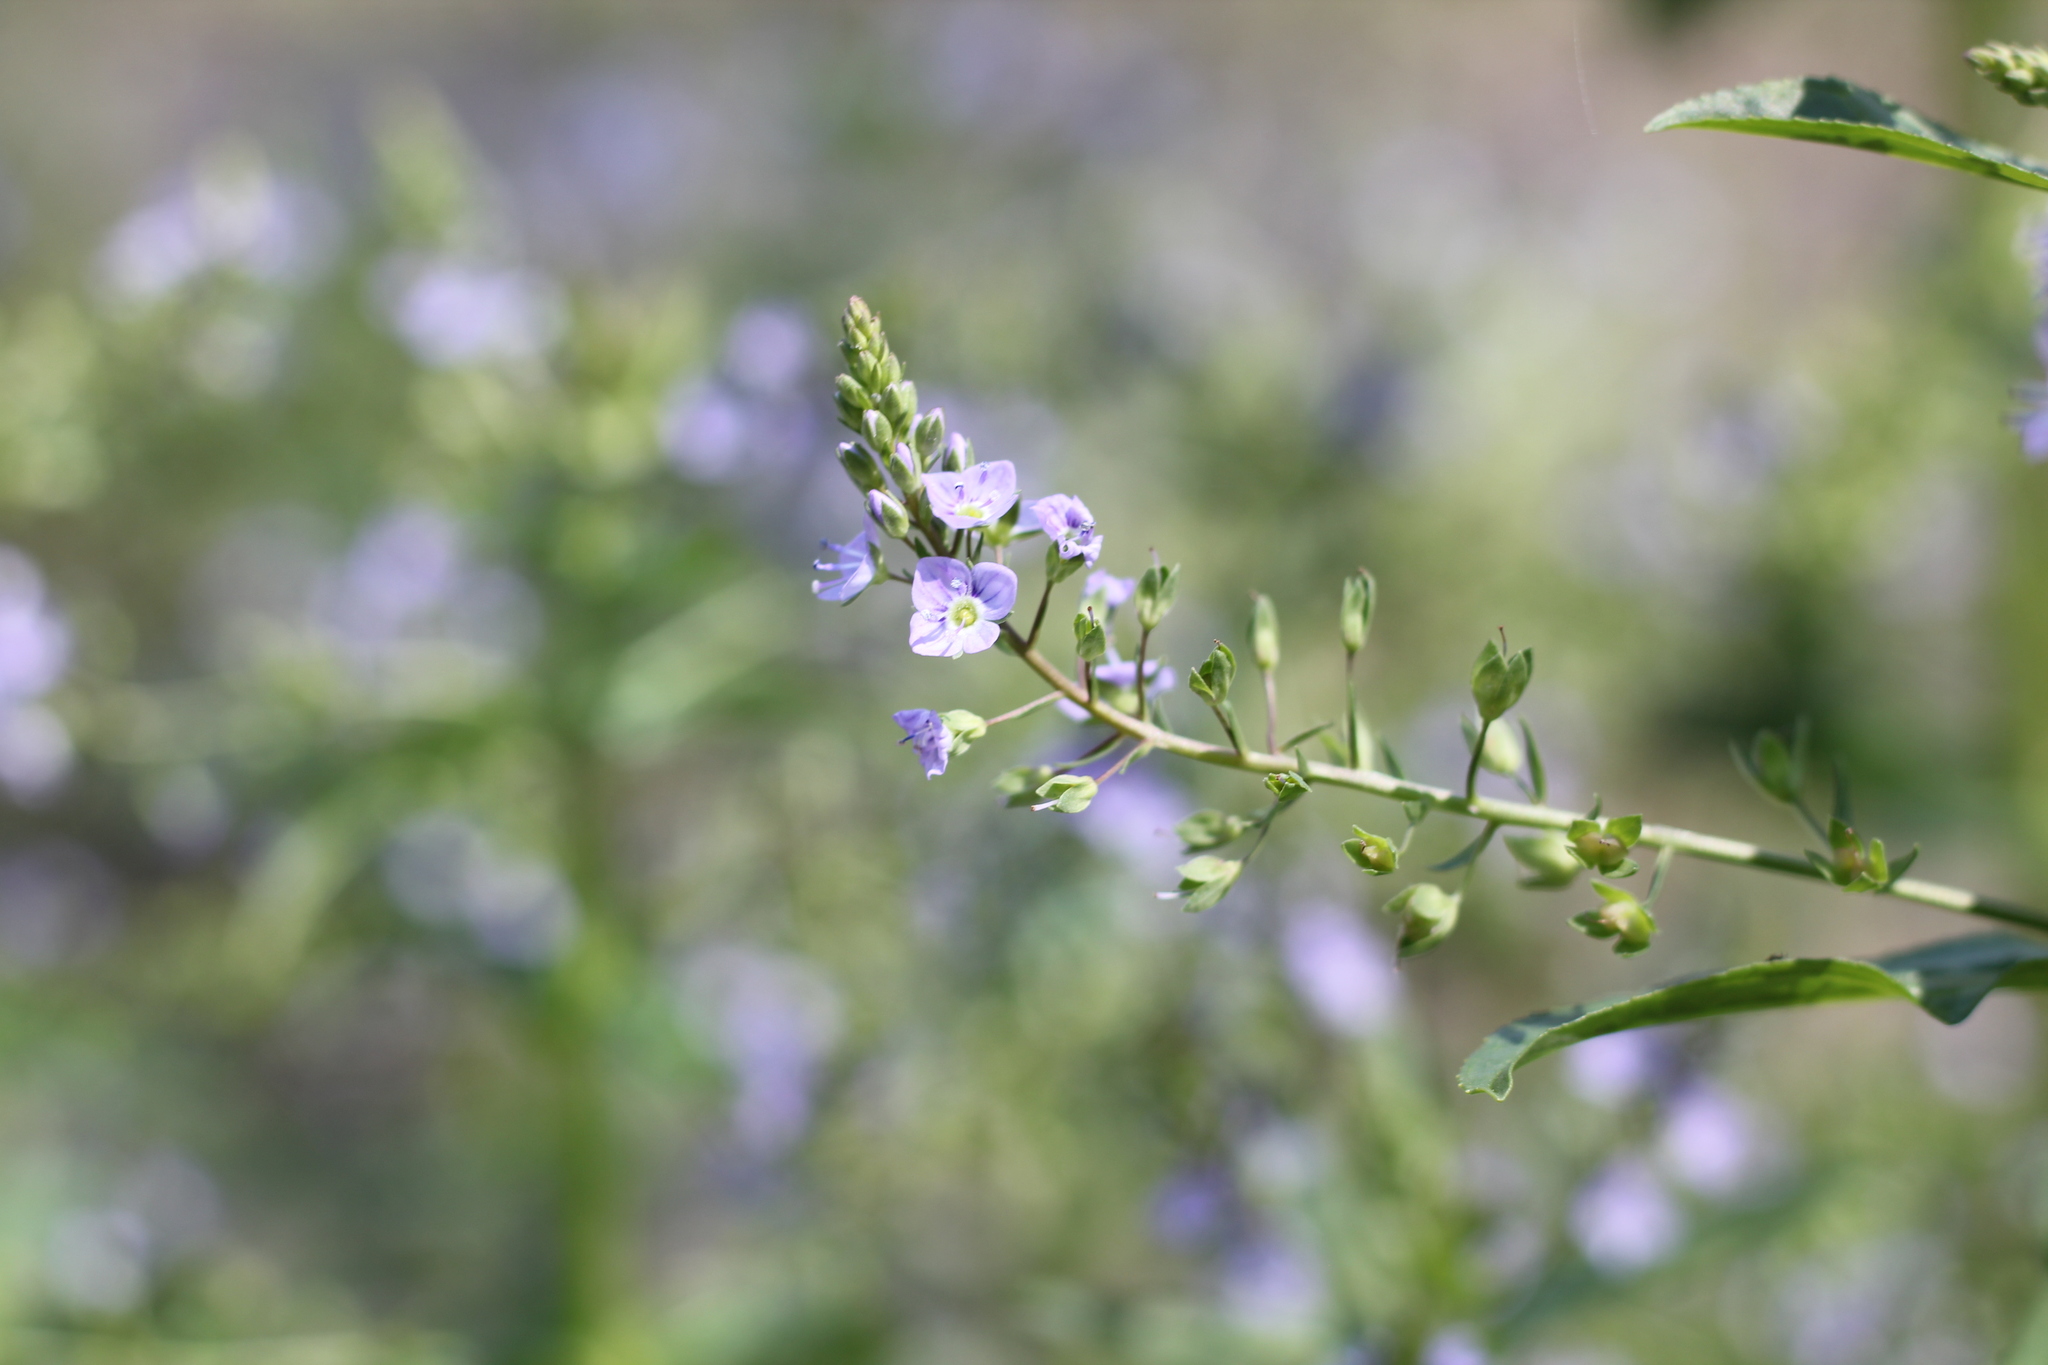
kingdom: Plantae
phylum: Tracheophyta
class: Magnoliopsida
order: Lamiales
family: Plantaginaceae
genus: Veronica
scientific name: Veronica anagallis-aquatica
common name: Water speedwell
